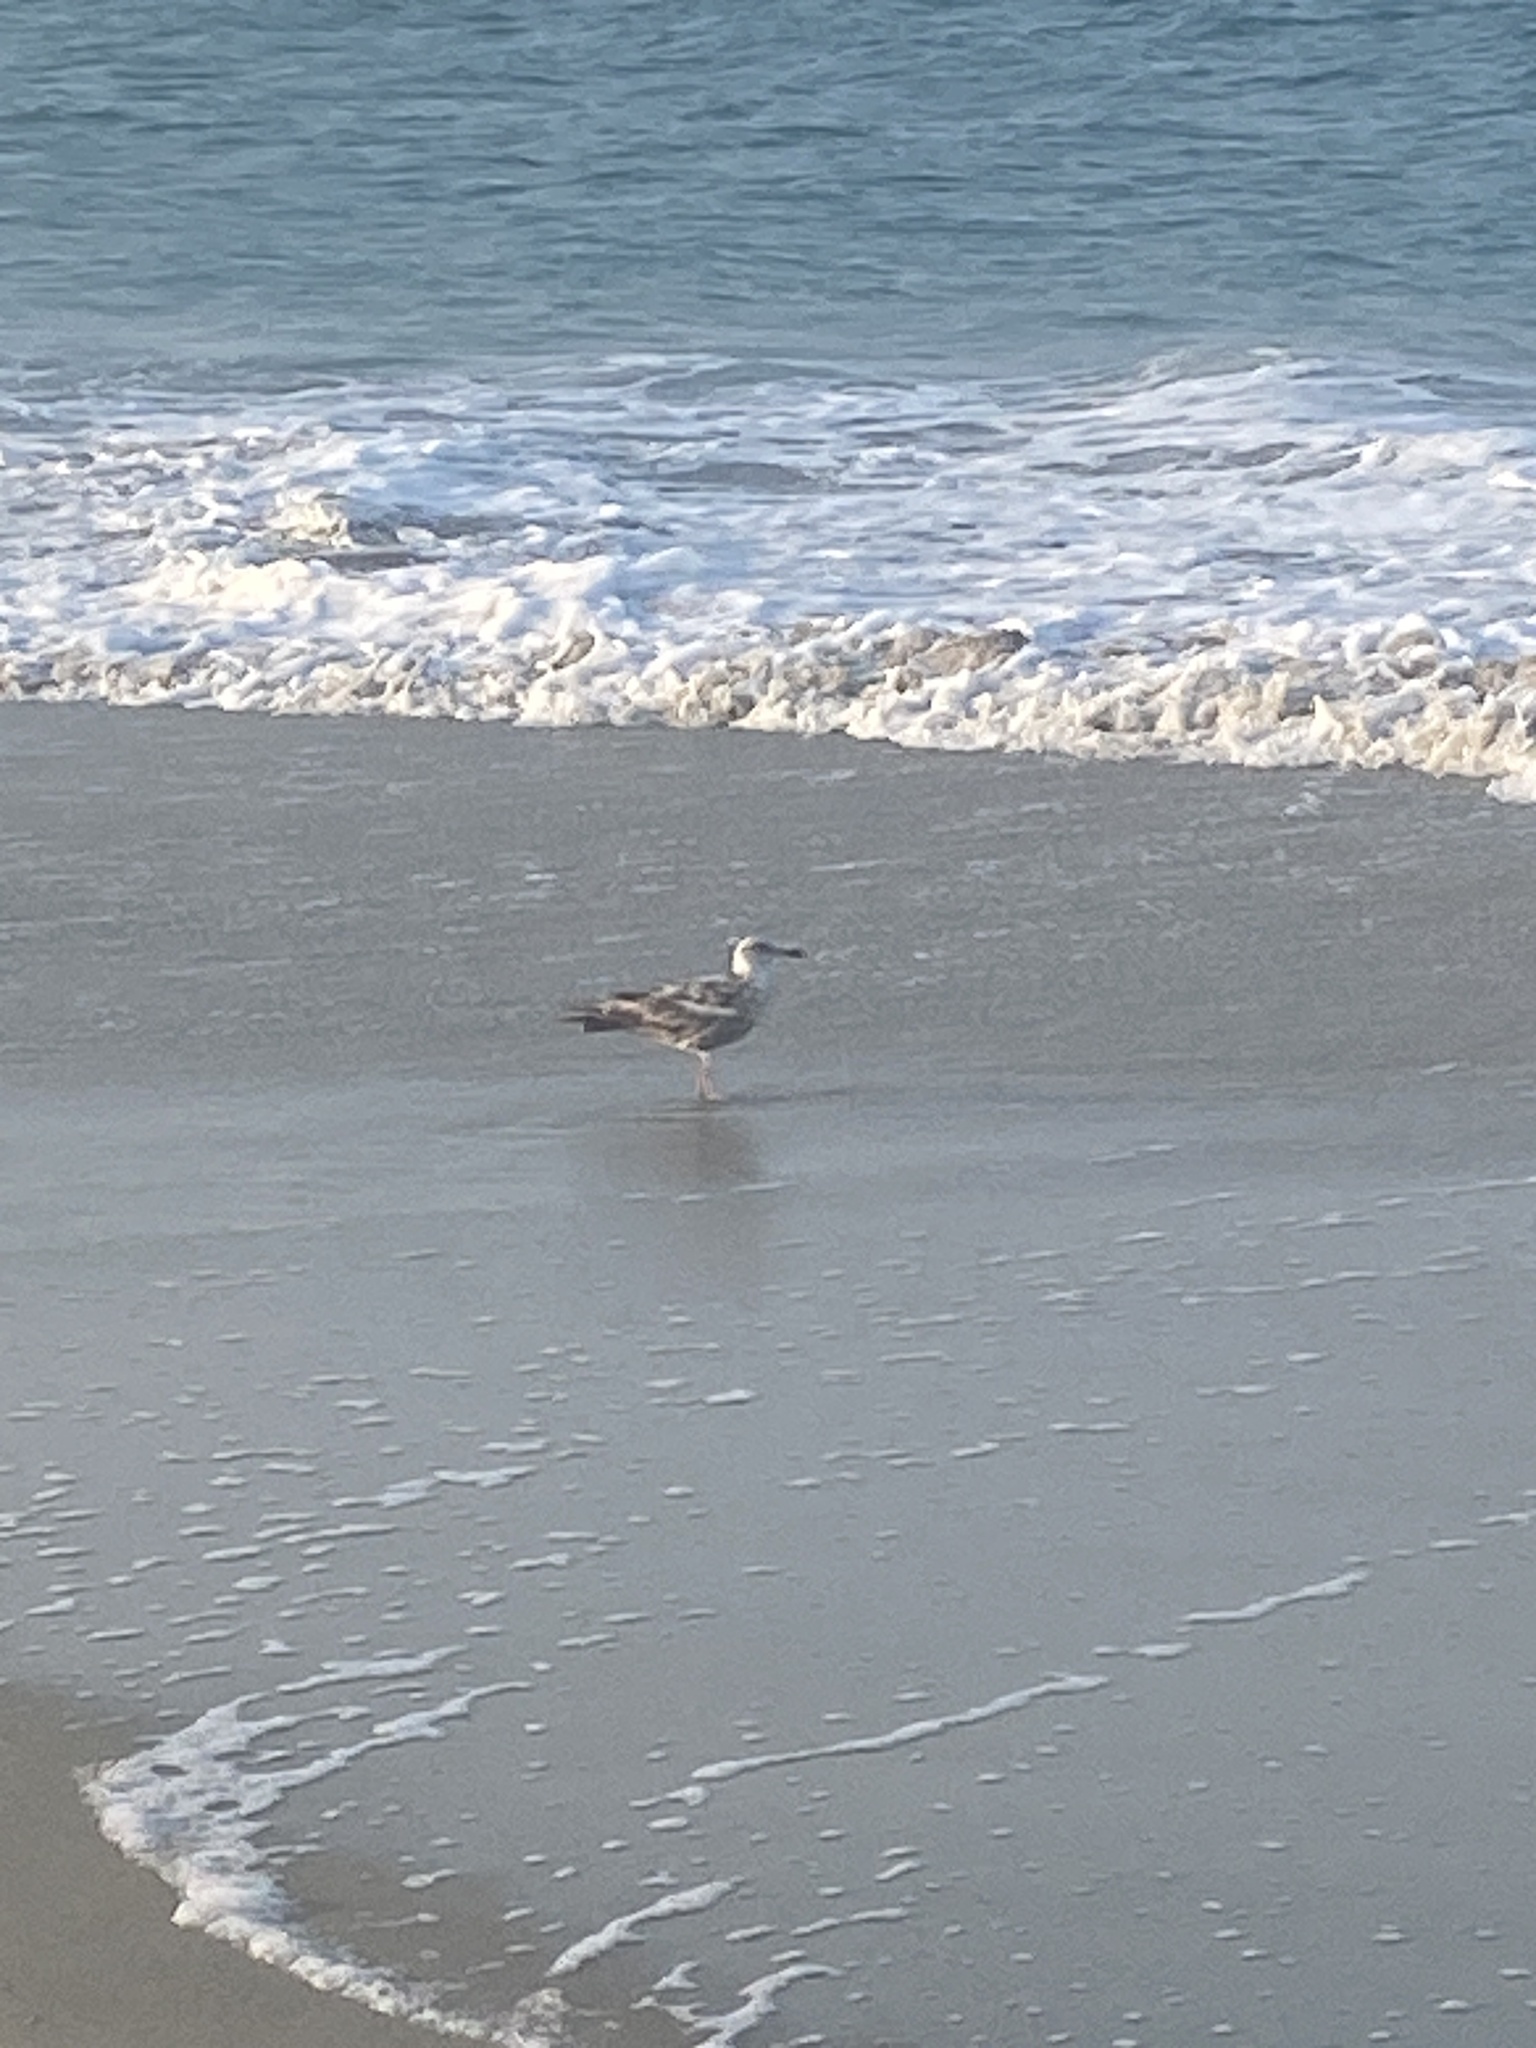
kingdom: Animalia
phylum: Chordata
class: Aves
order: Charadriiformes
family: Laridae
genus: Larus
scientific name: Larus argentatus
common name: Herring gull
